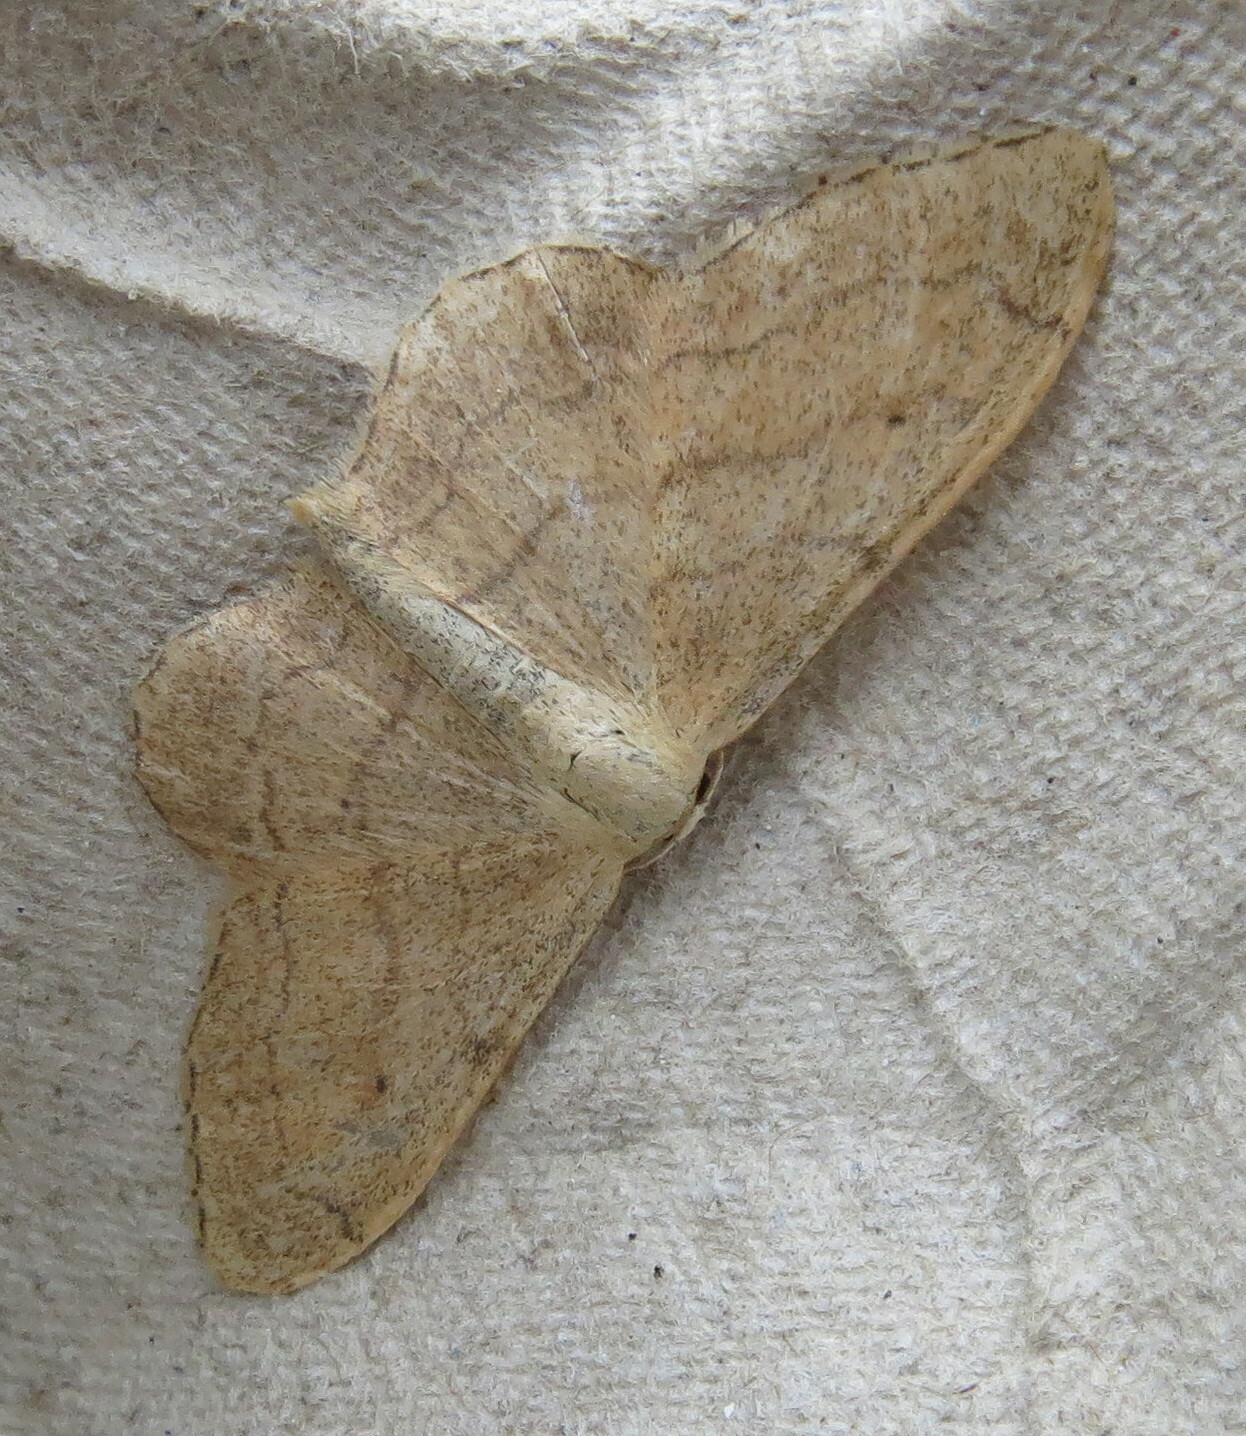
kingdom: Animalia
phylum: Arthropoda
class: Insecta
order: Lepidoptera
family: Geometridae
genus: Idaea
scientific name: Idaea aversata
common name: Riband wave
